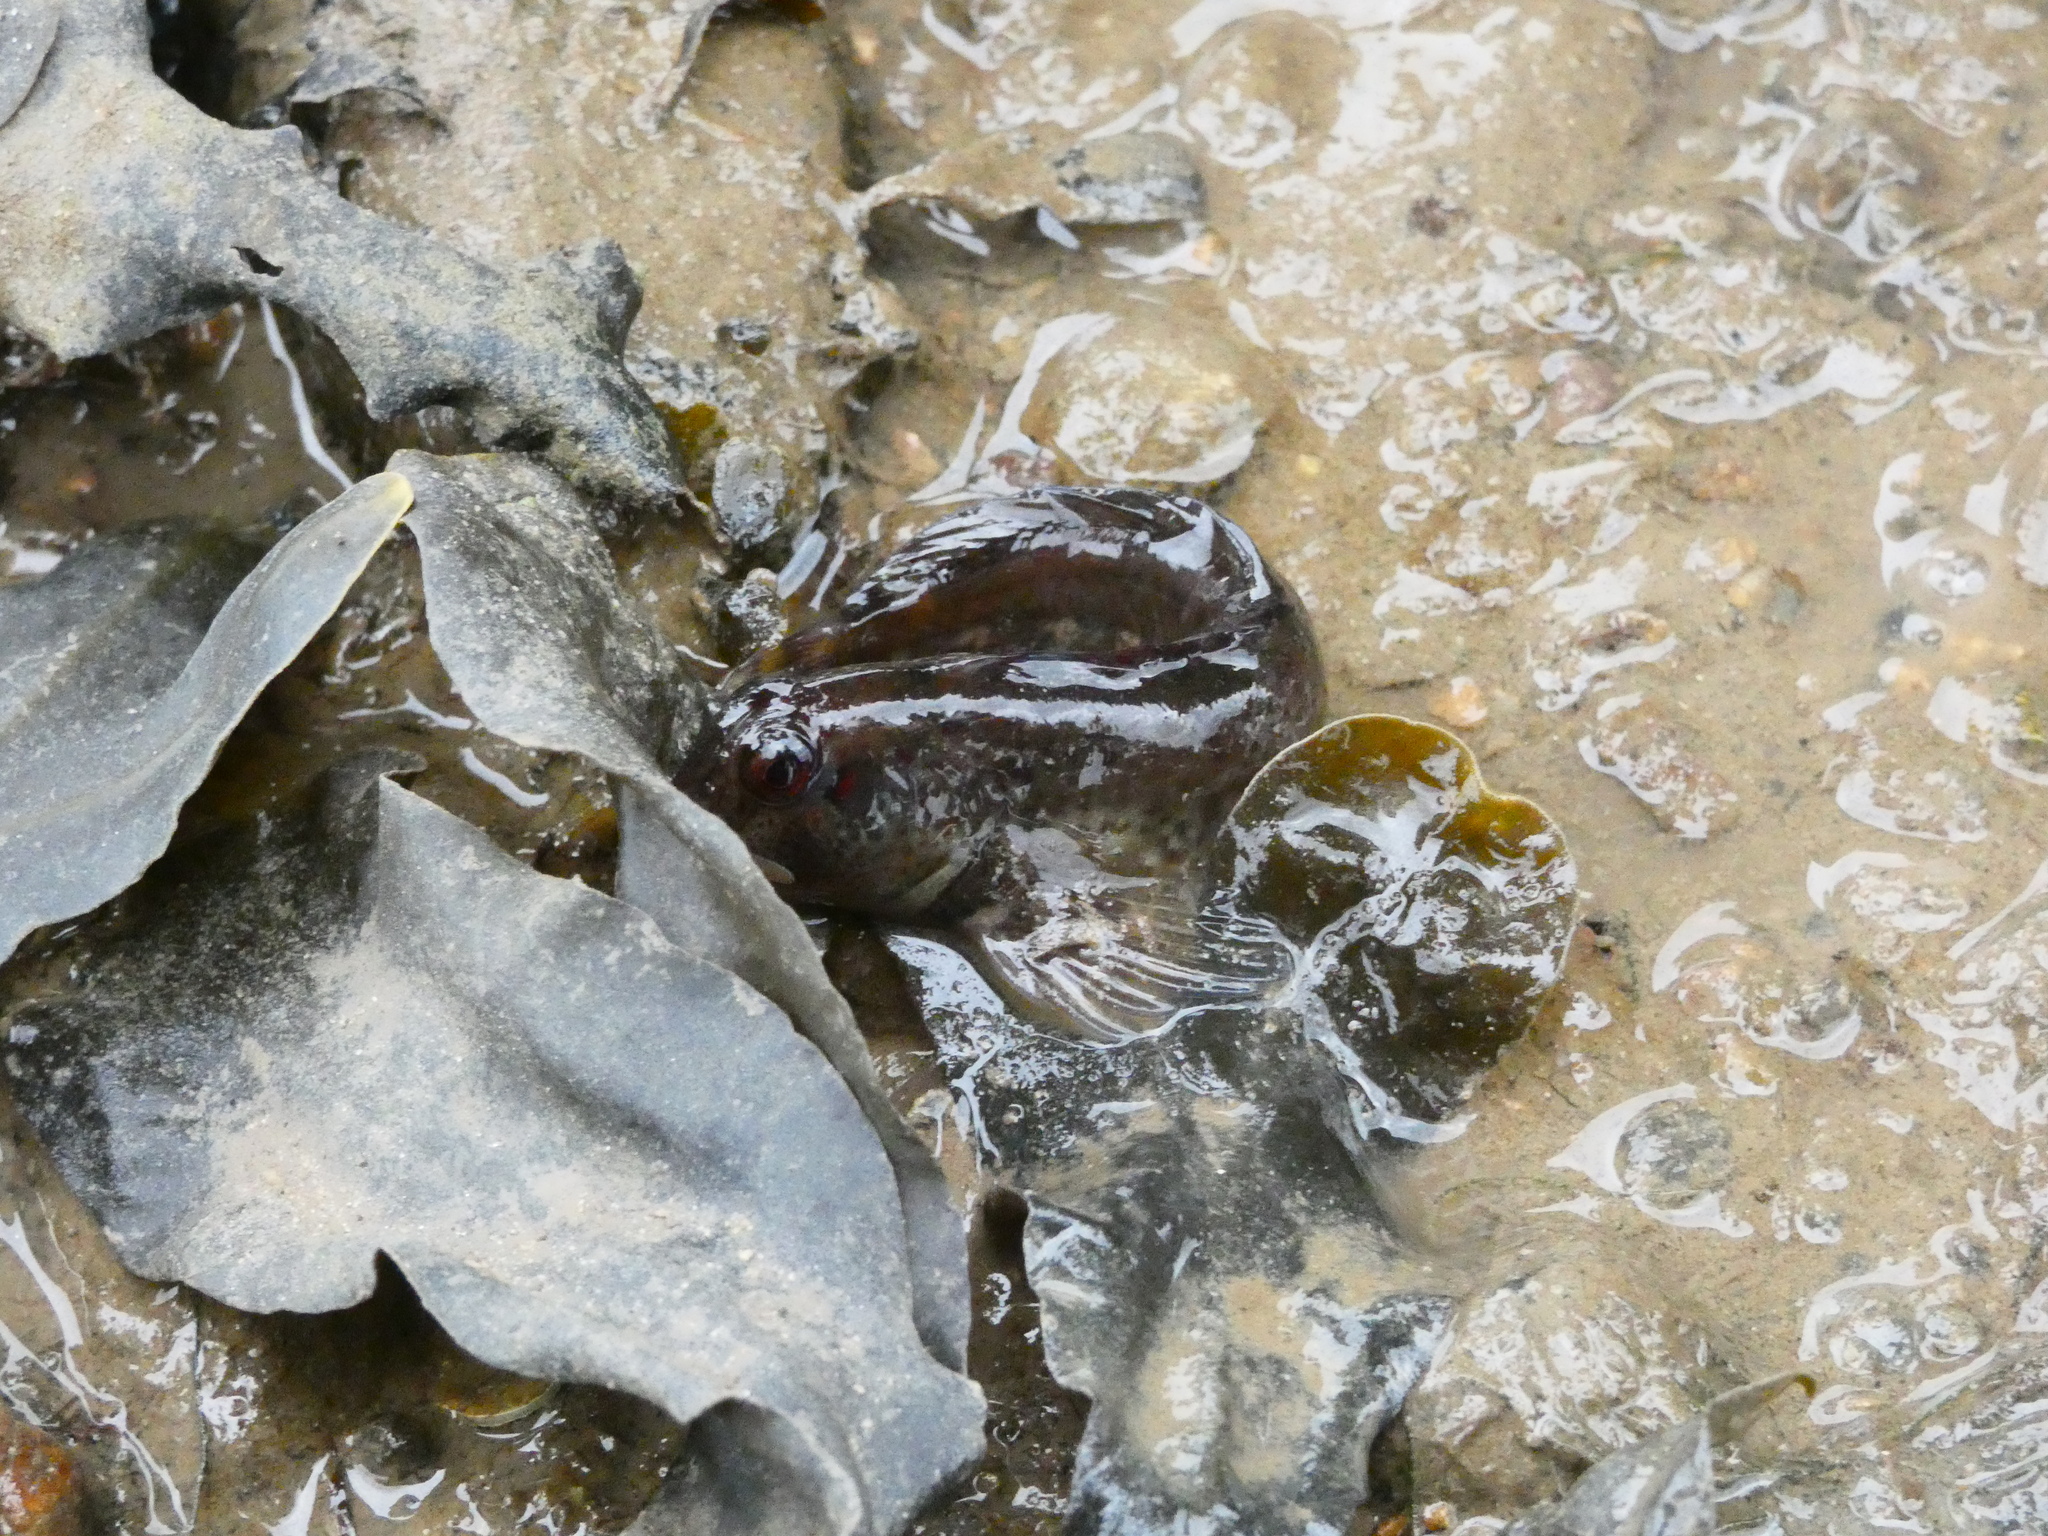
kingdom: Animalia
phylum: Chordata
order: Perciformes
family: Blenniidae
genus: Lipophrys
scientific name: Lipophrys pholis
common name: Shanny
